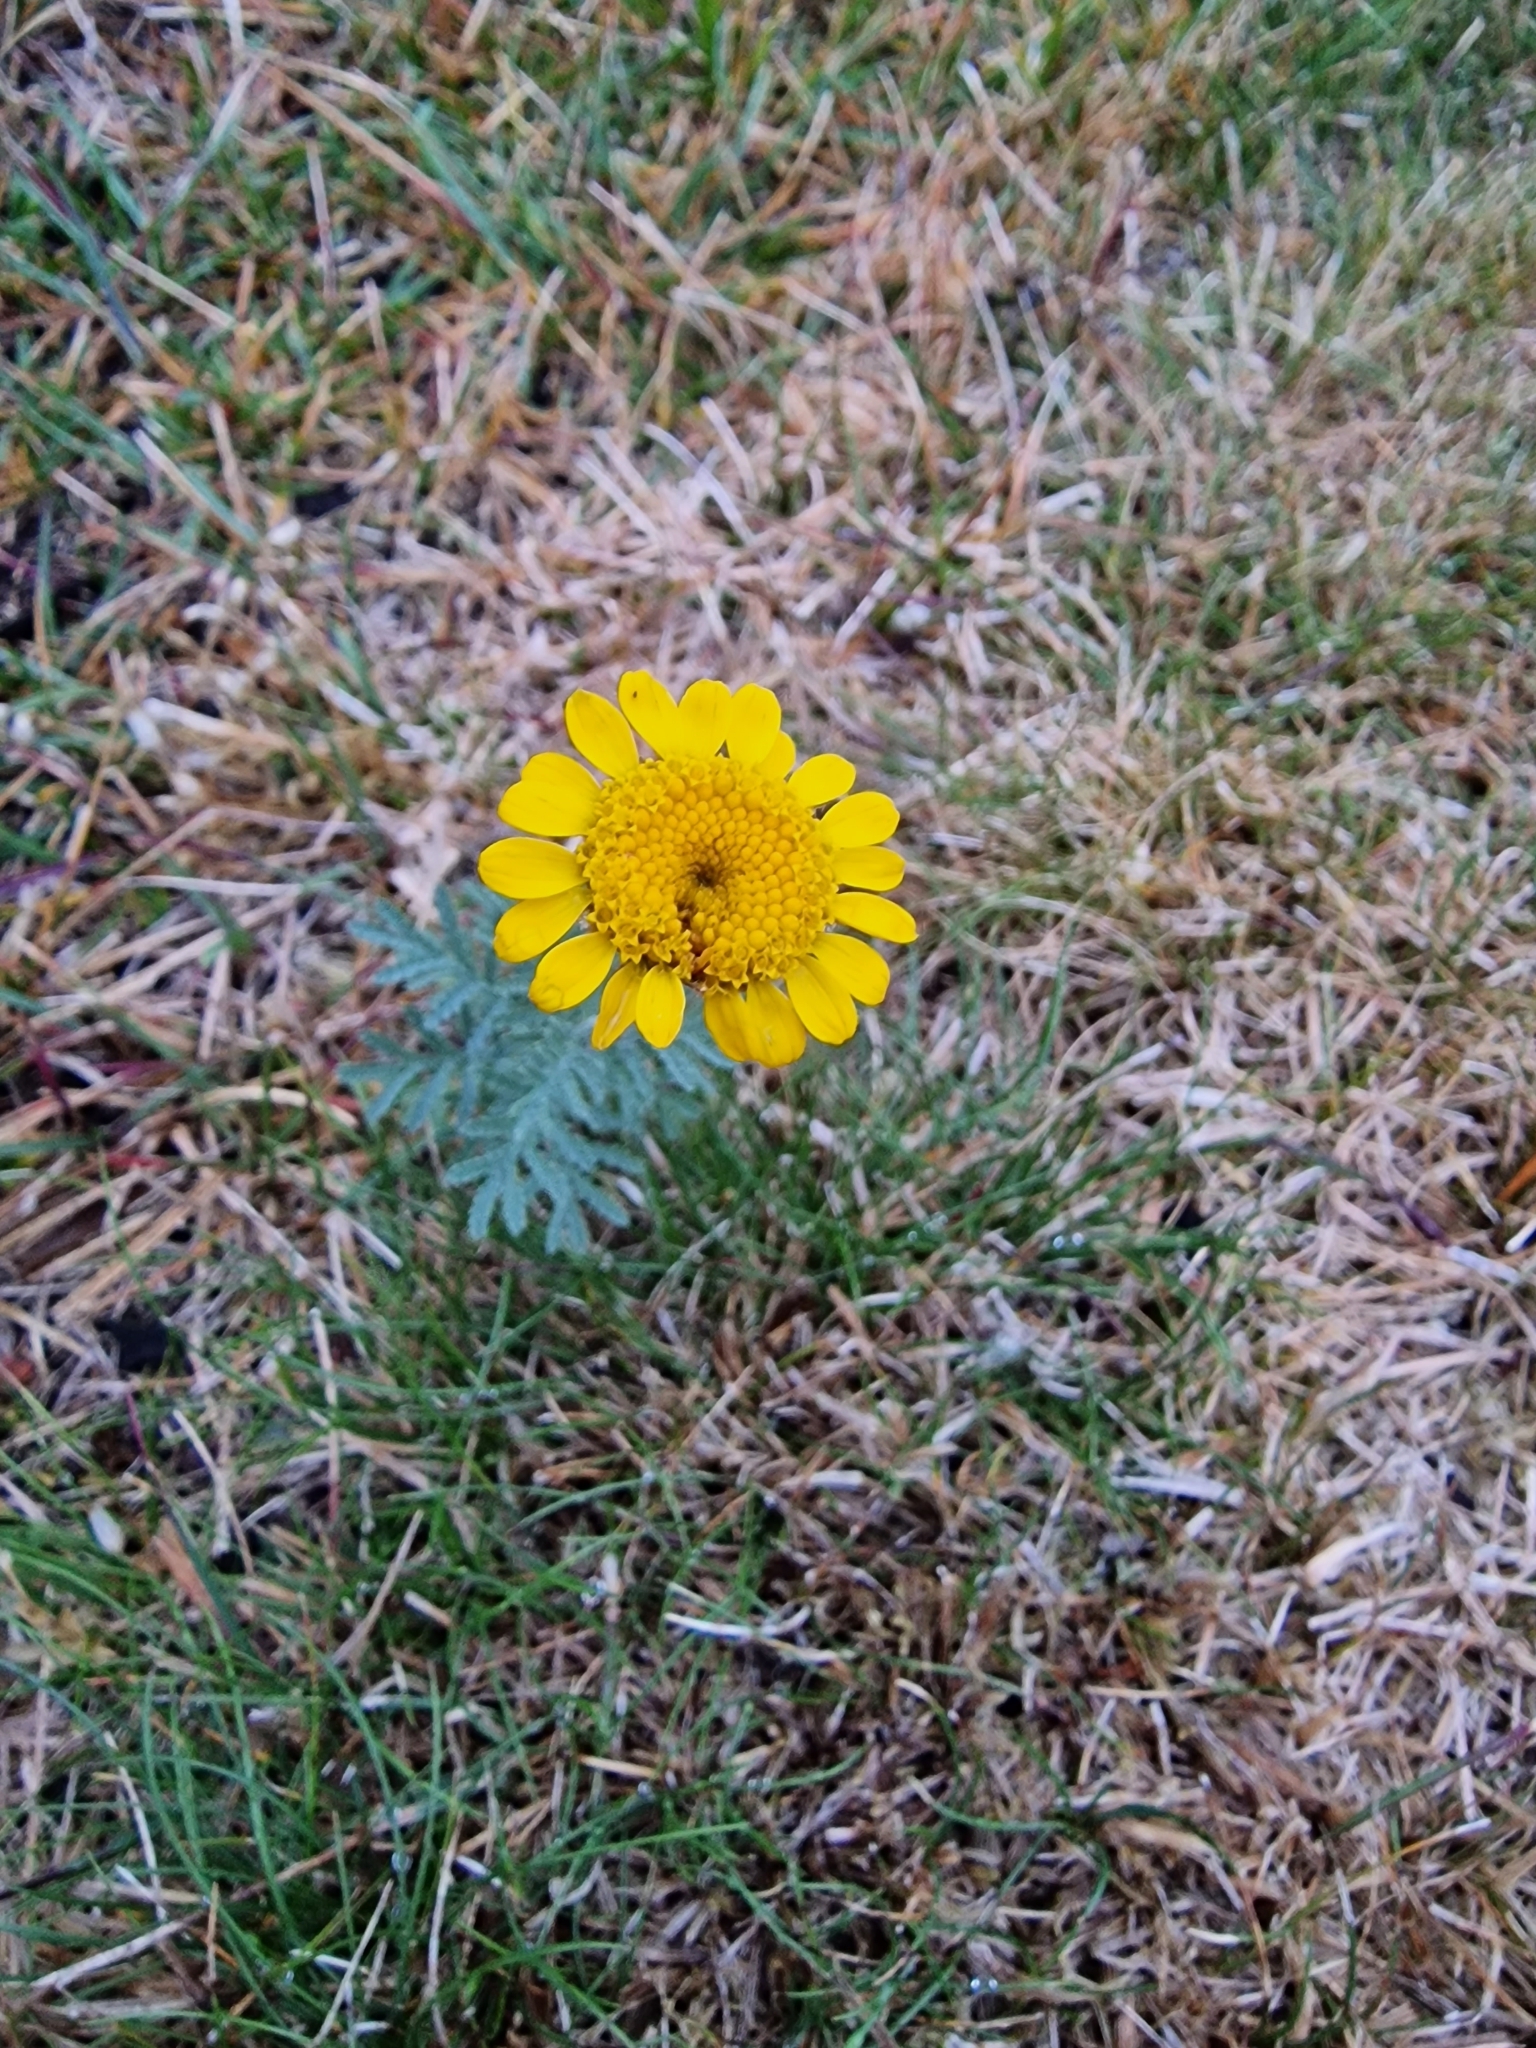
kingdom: Plantae
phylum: Tracheophyta
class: Magnoliopsida
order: Asterales
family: Asteraceae
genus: Cota
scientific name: Cota tinctoria
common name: Golden chamomile
